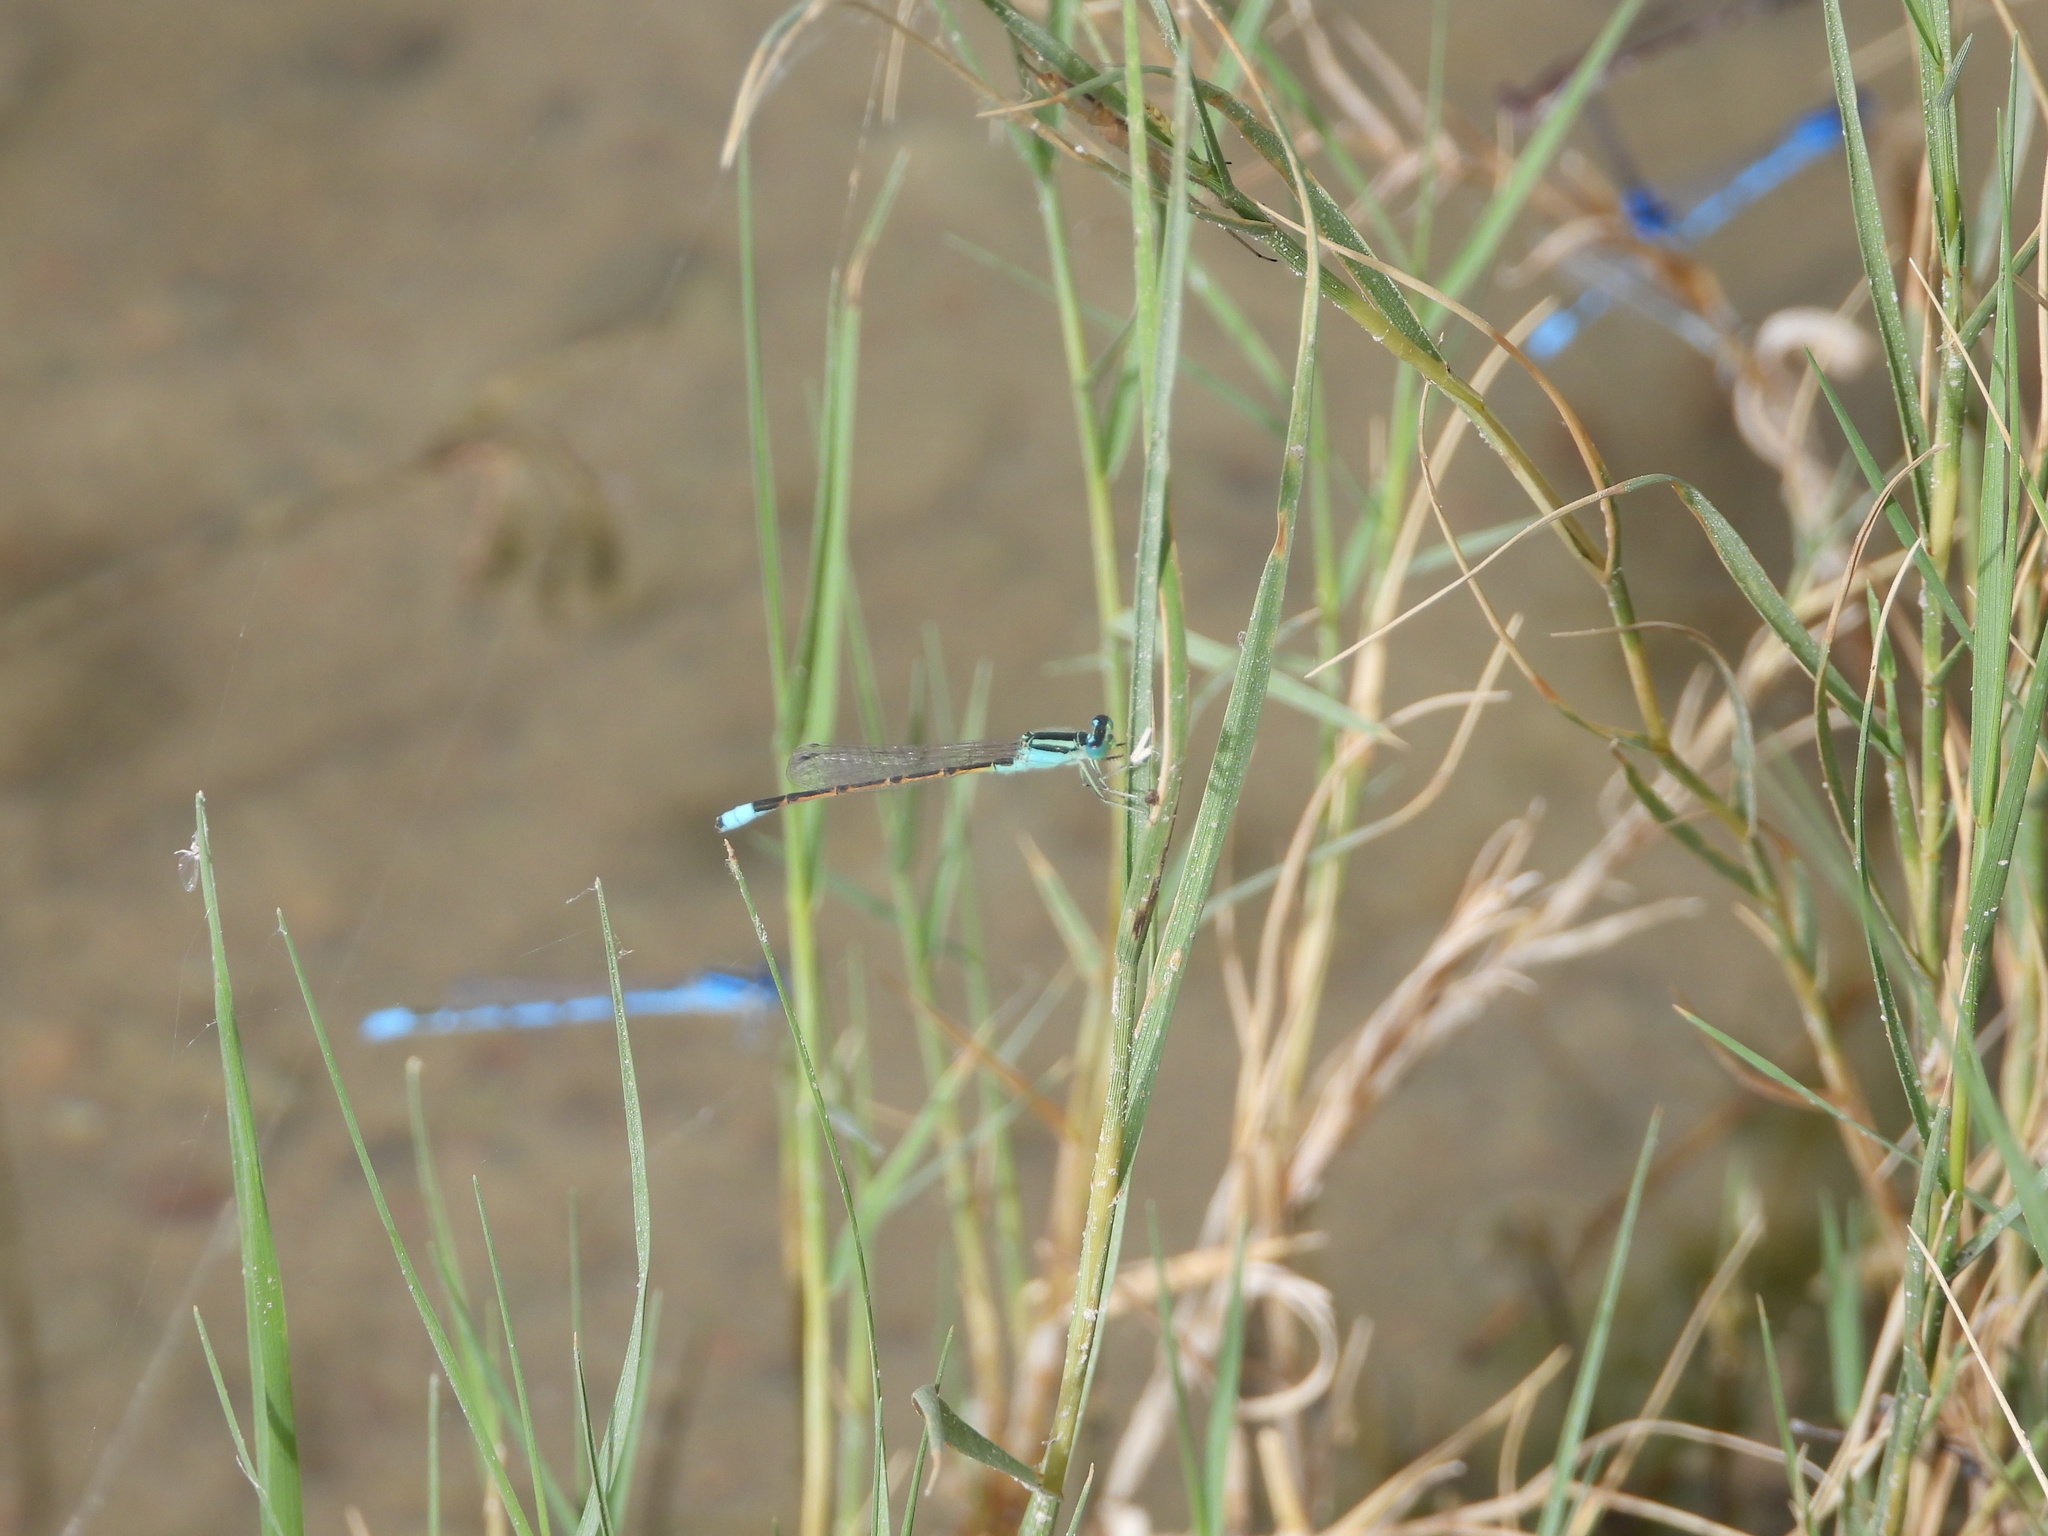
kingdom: Animalia
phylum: Arthropoda
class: Insecta
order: Odonata
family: Coenagrionidae
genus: Ischnura
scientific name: Ischnura barberi
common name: Desert forktail
